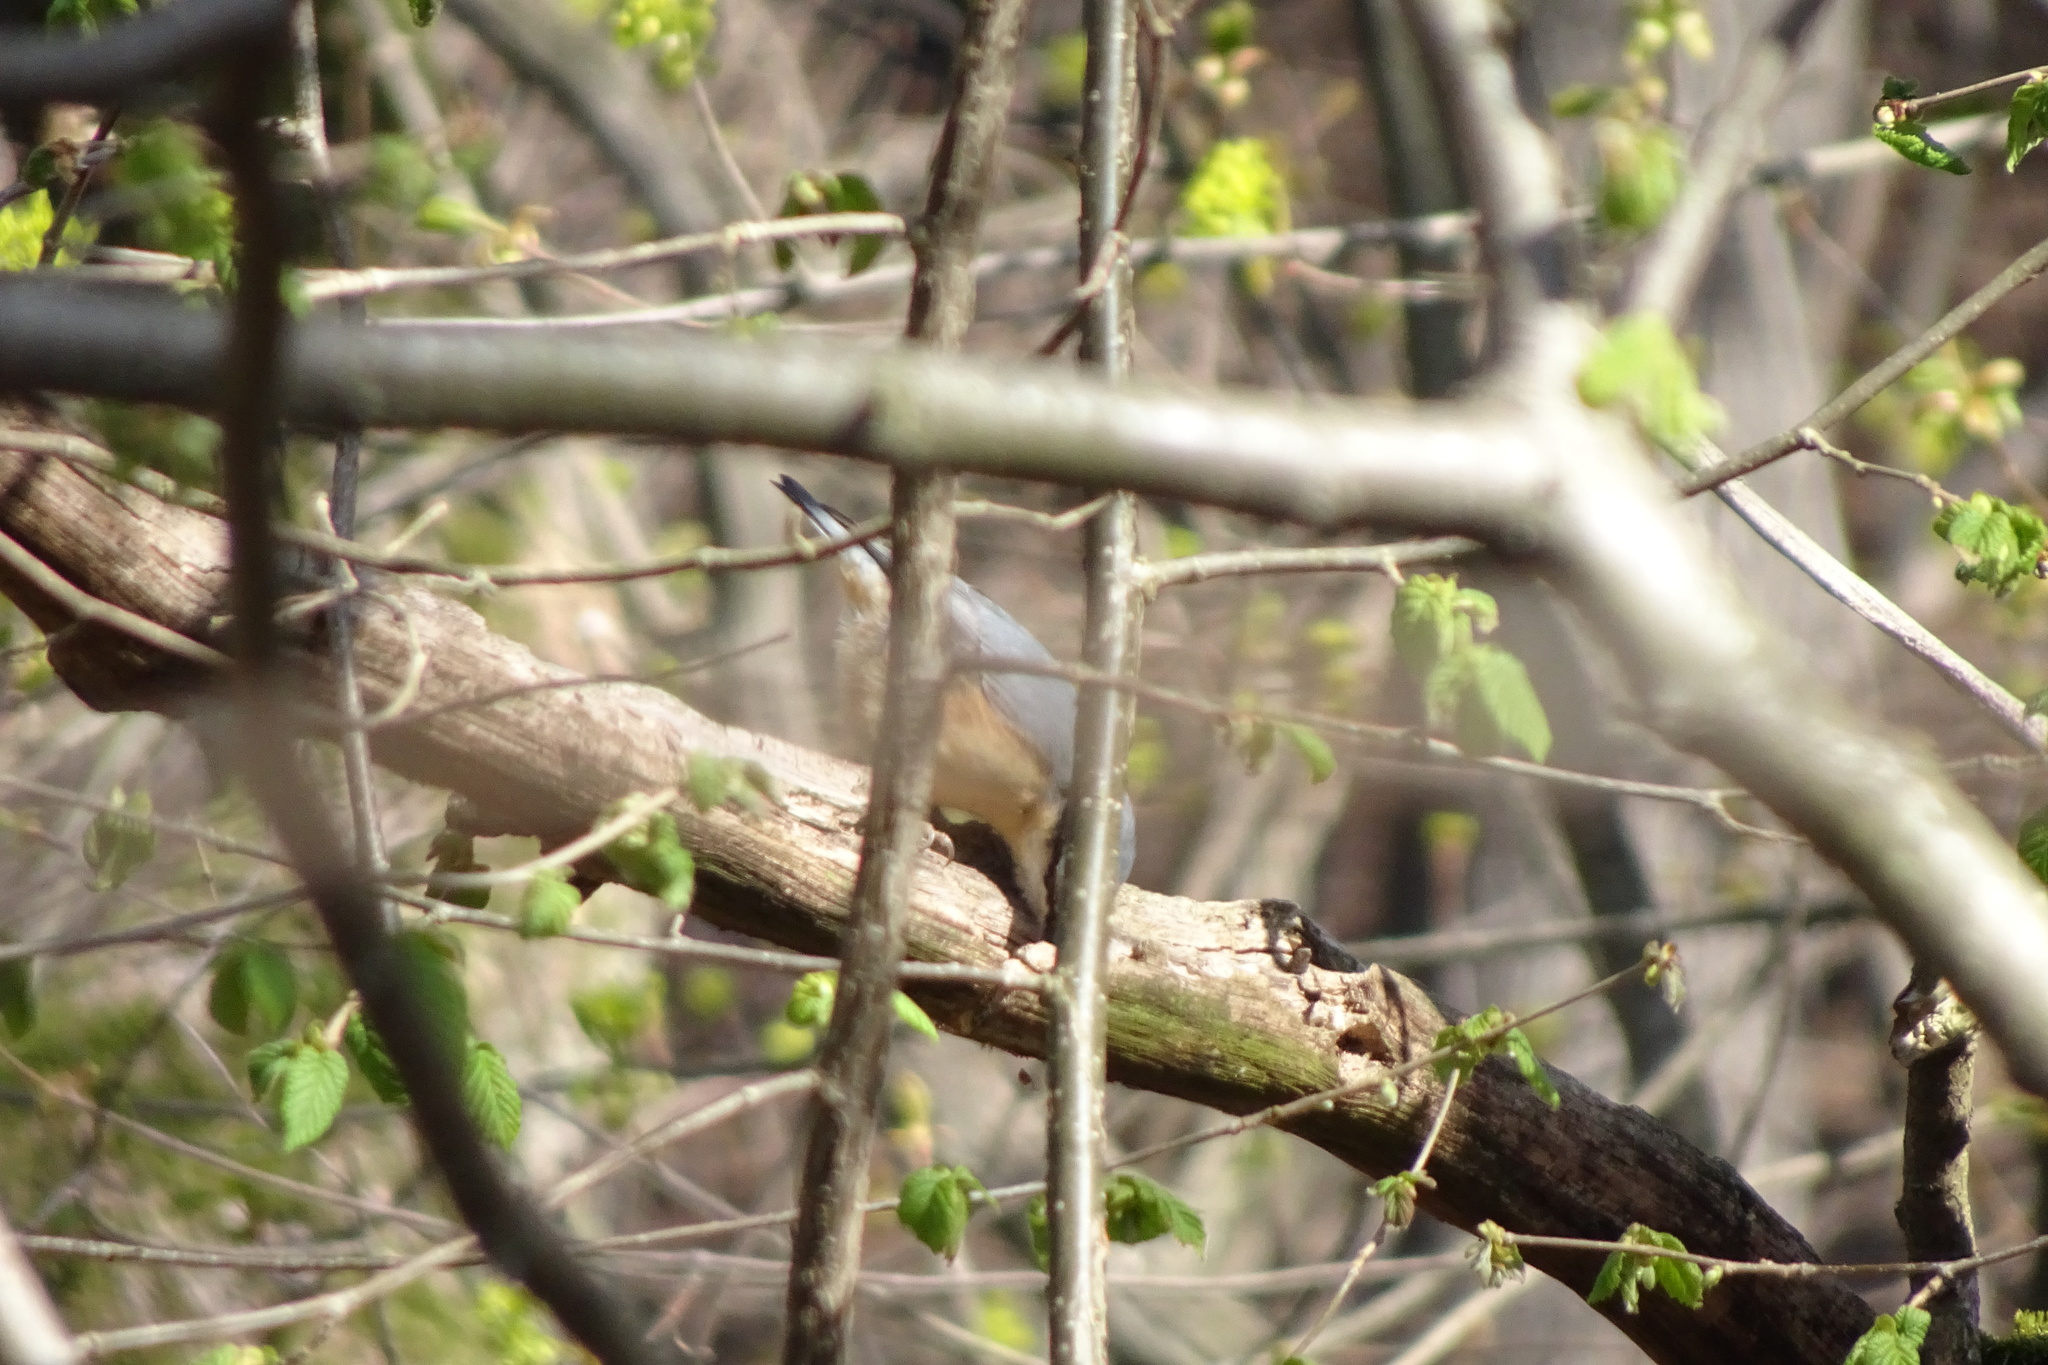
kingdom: Animalia
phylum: Chordata
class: Aves
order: Passeriformes
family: Sittidae
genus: Sitta
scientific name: Sitta europaea
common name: Eurasian nuthatch
